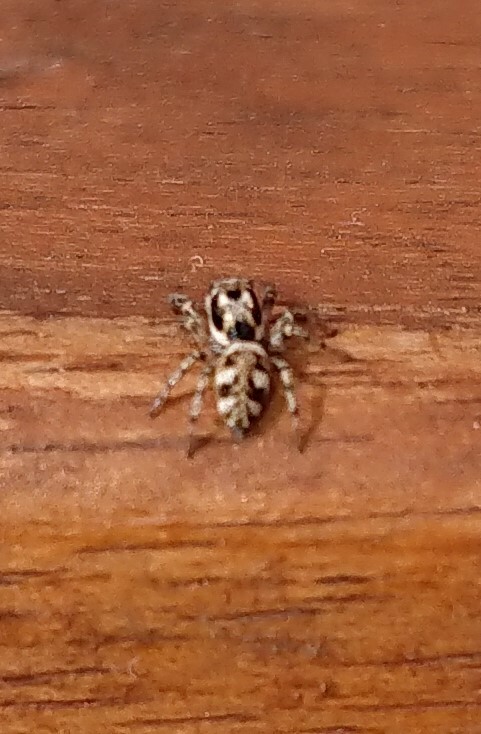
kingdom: Animalia
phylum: Arthropoda
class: Arachnida
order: Araneae
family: Salticidae
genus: Salticus
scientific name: Salticus scenicus
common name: Zebra jumper
